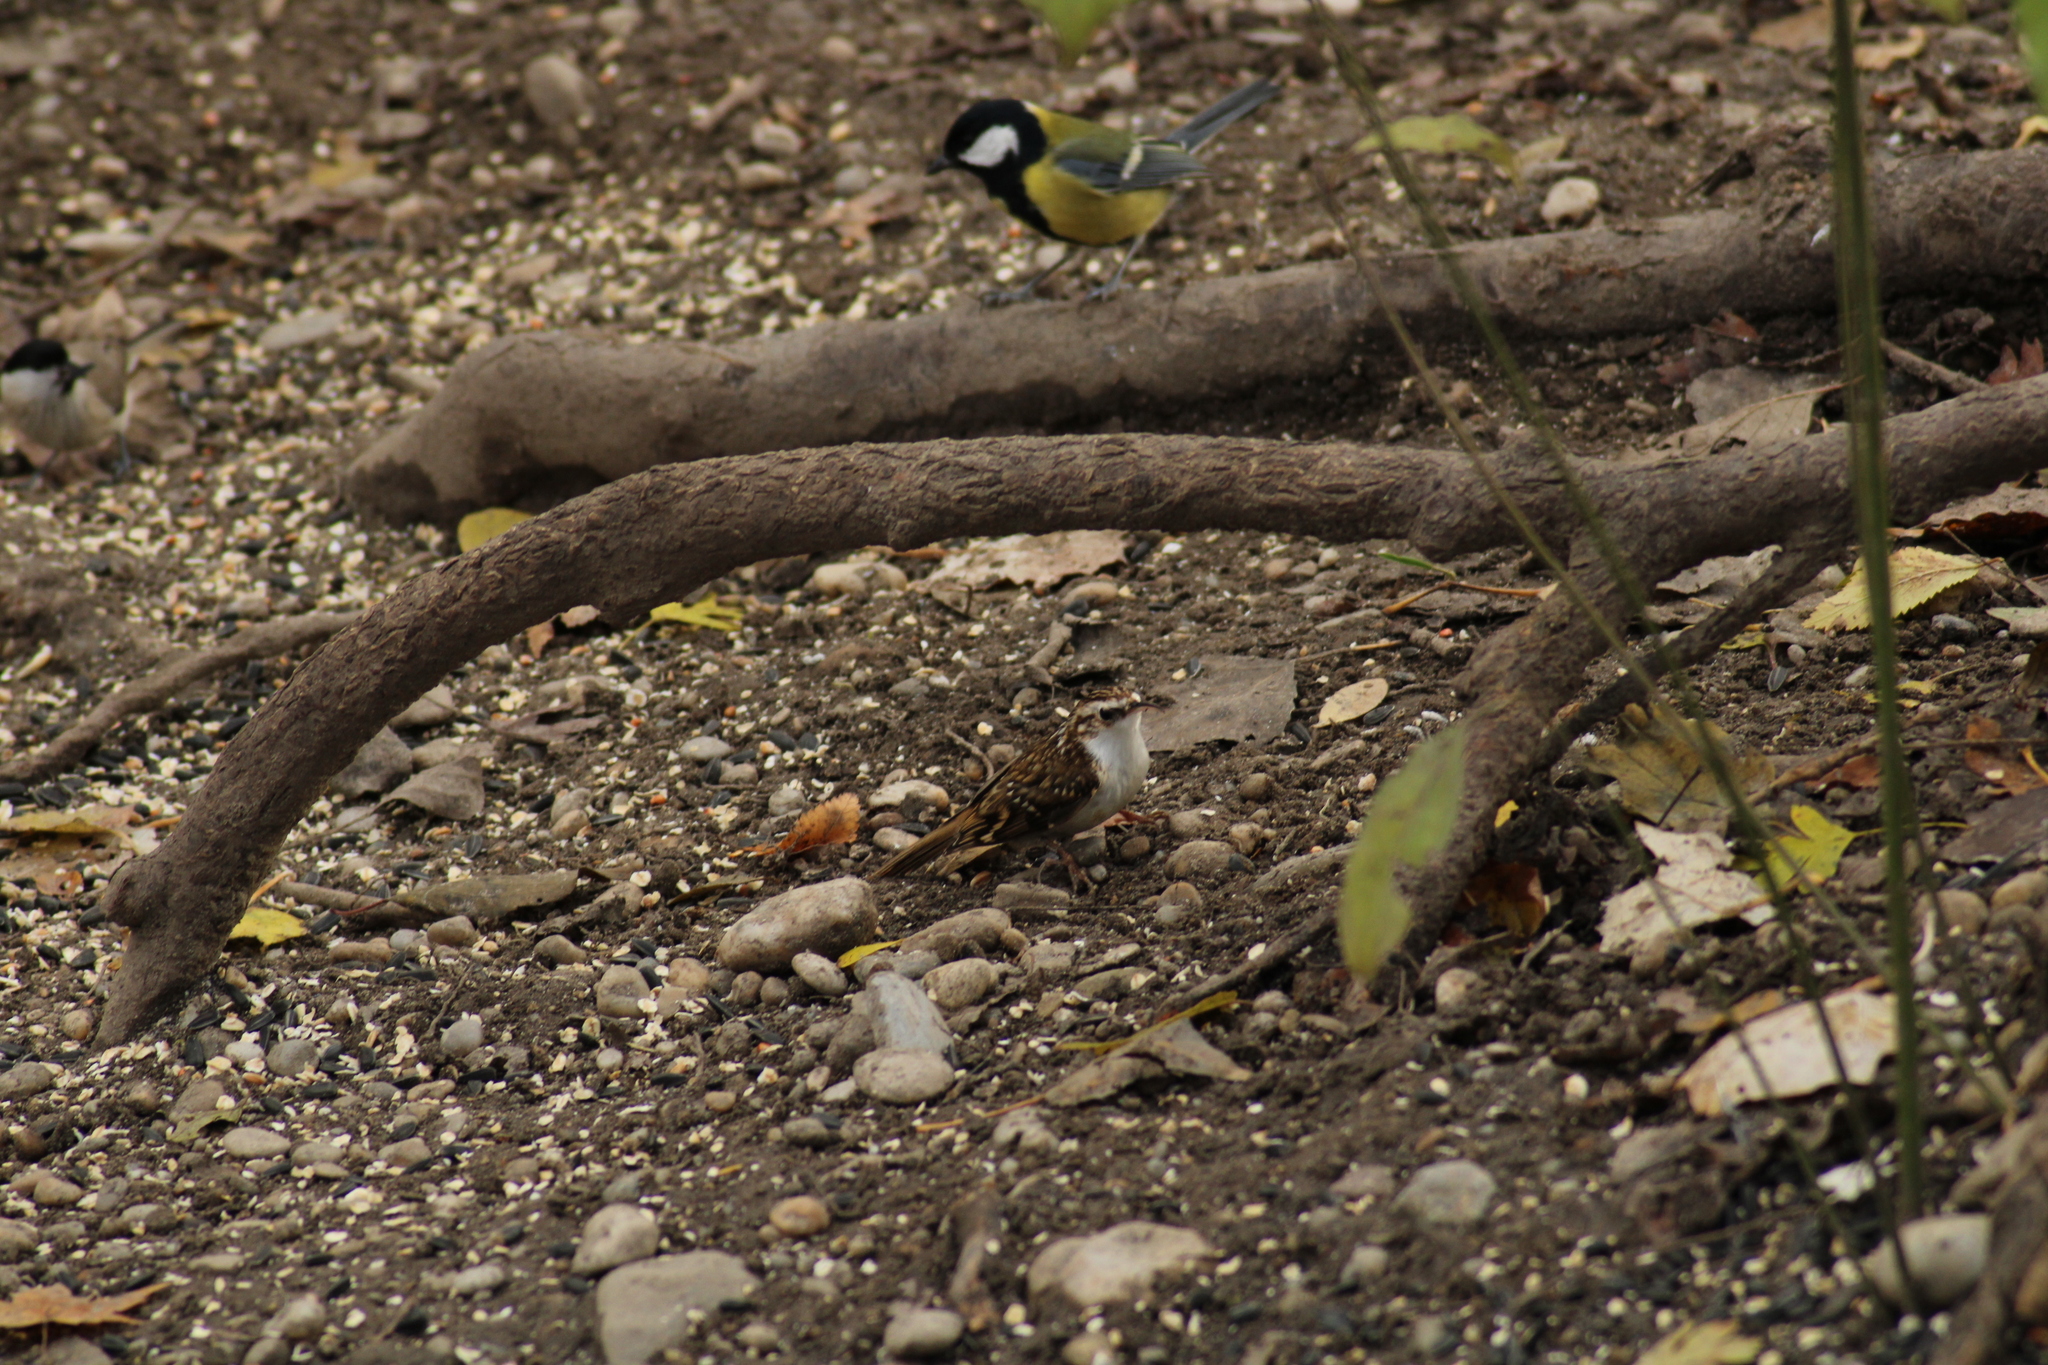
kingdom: Animalia
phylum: Chordata
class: Aves
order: Passeriformes
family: Certhiidae
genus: Certhia
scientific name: Certhia familiaris
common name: Eurasian treecreeper
